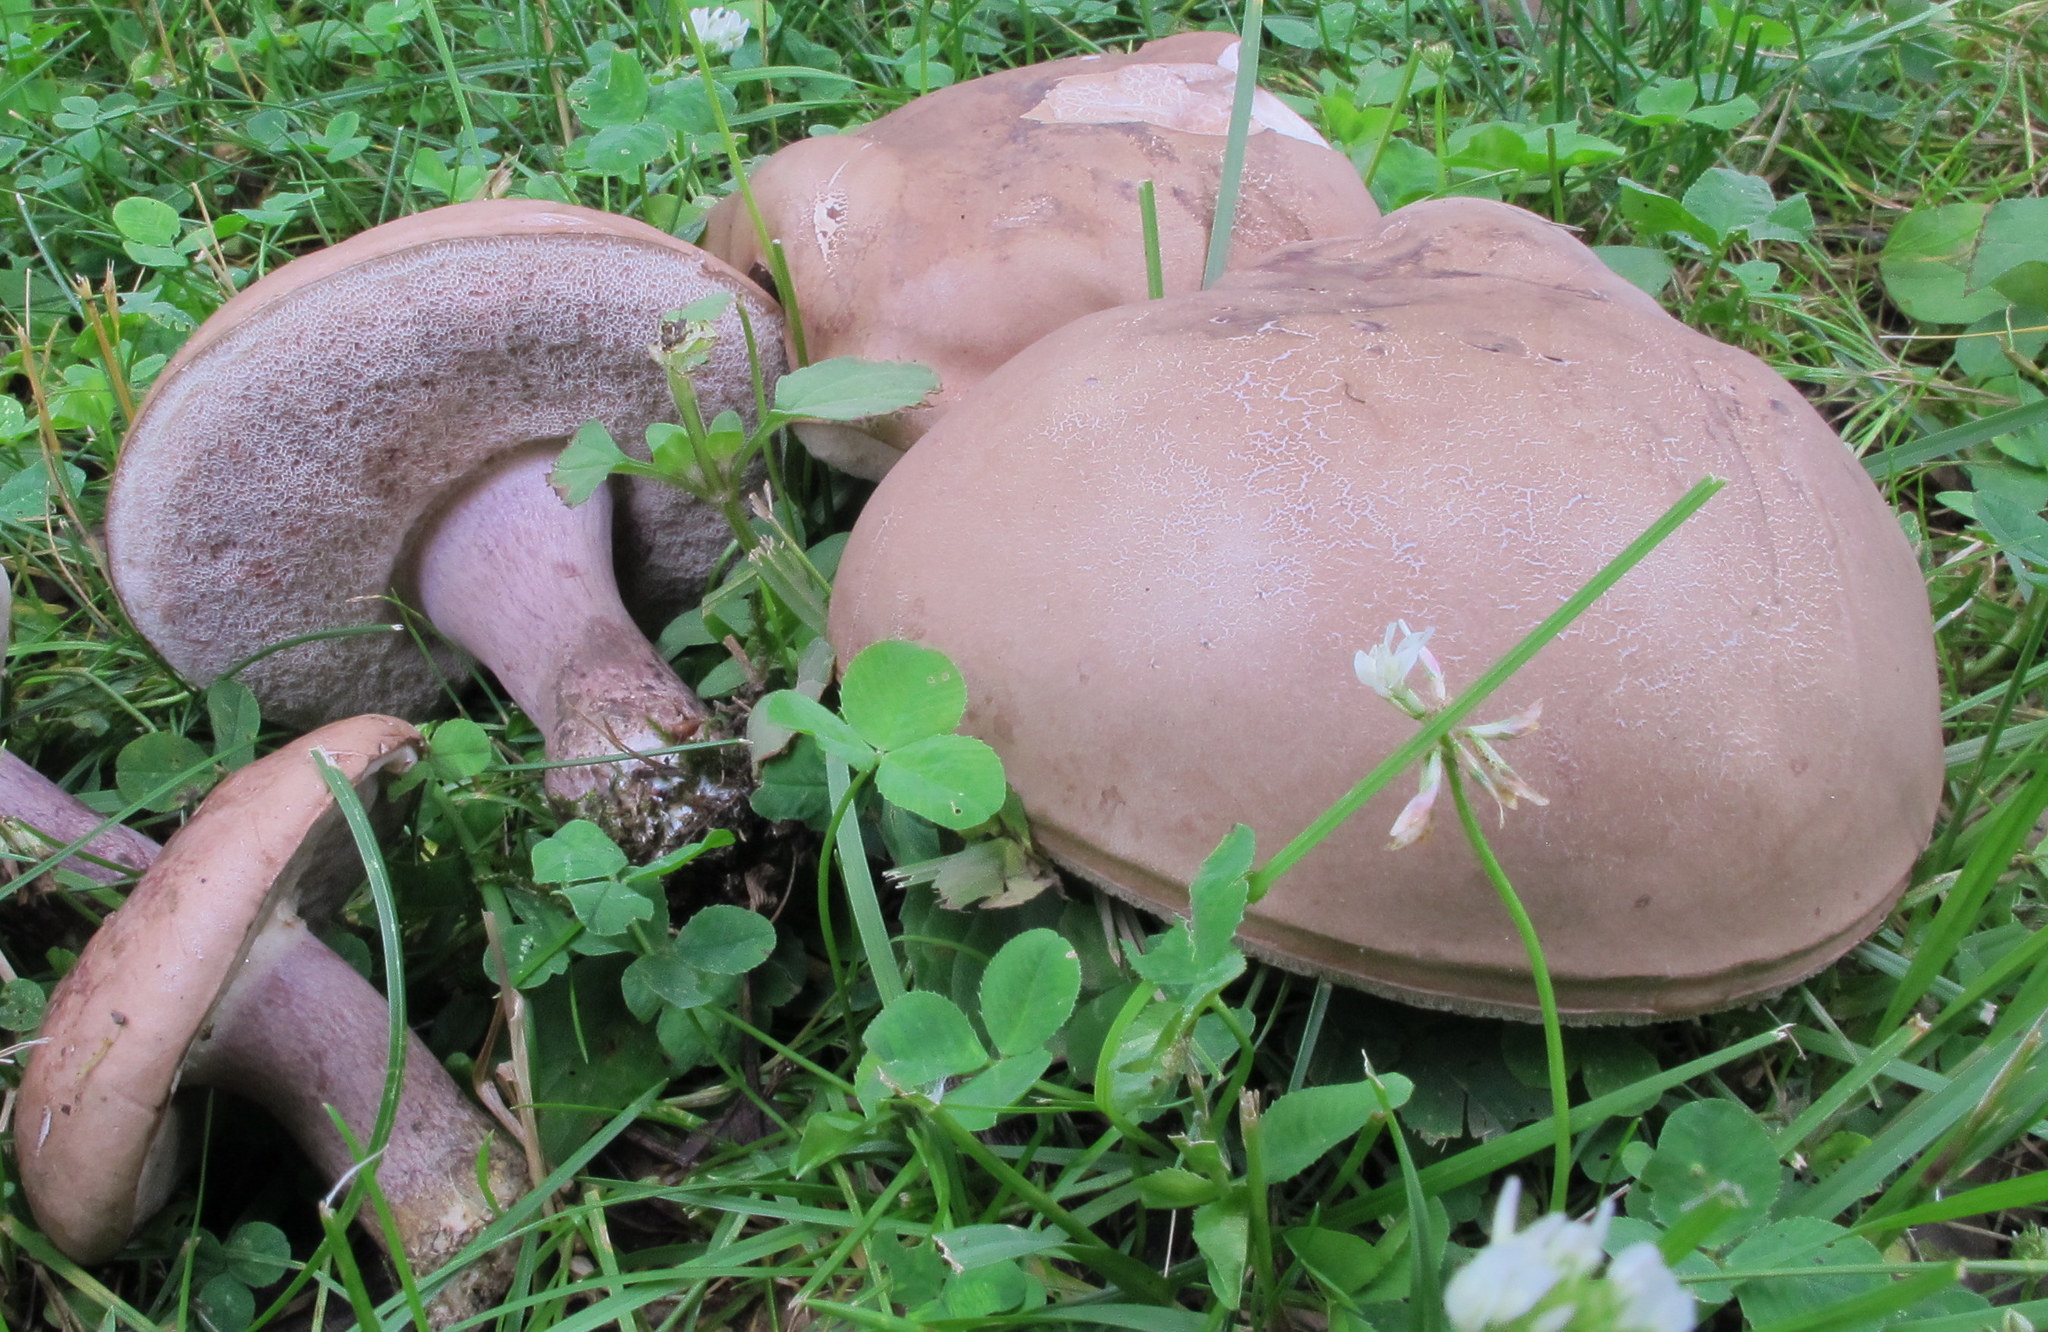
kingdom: Fungi
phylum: Basidiomycota
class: Agaricomycetes
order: Boletales
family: Boletaceae
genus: Tylopilus
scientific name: Tylopilus plumbeoviolaceus
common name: Violet gray bolete
